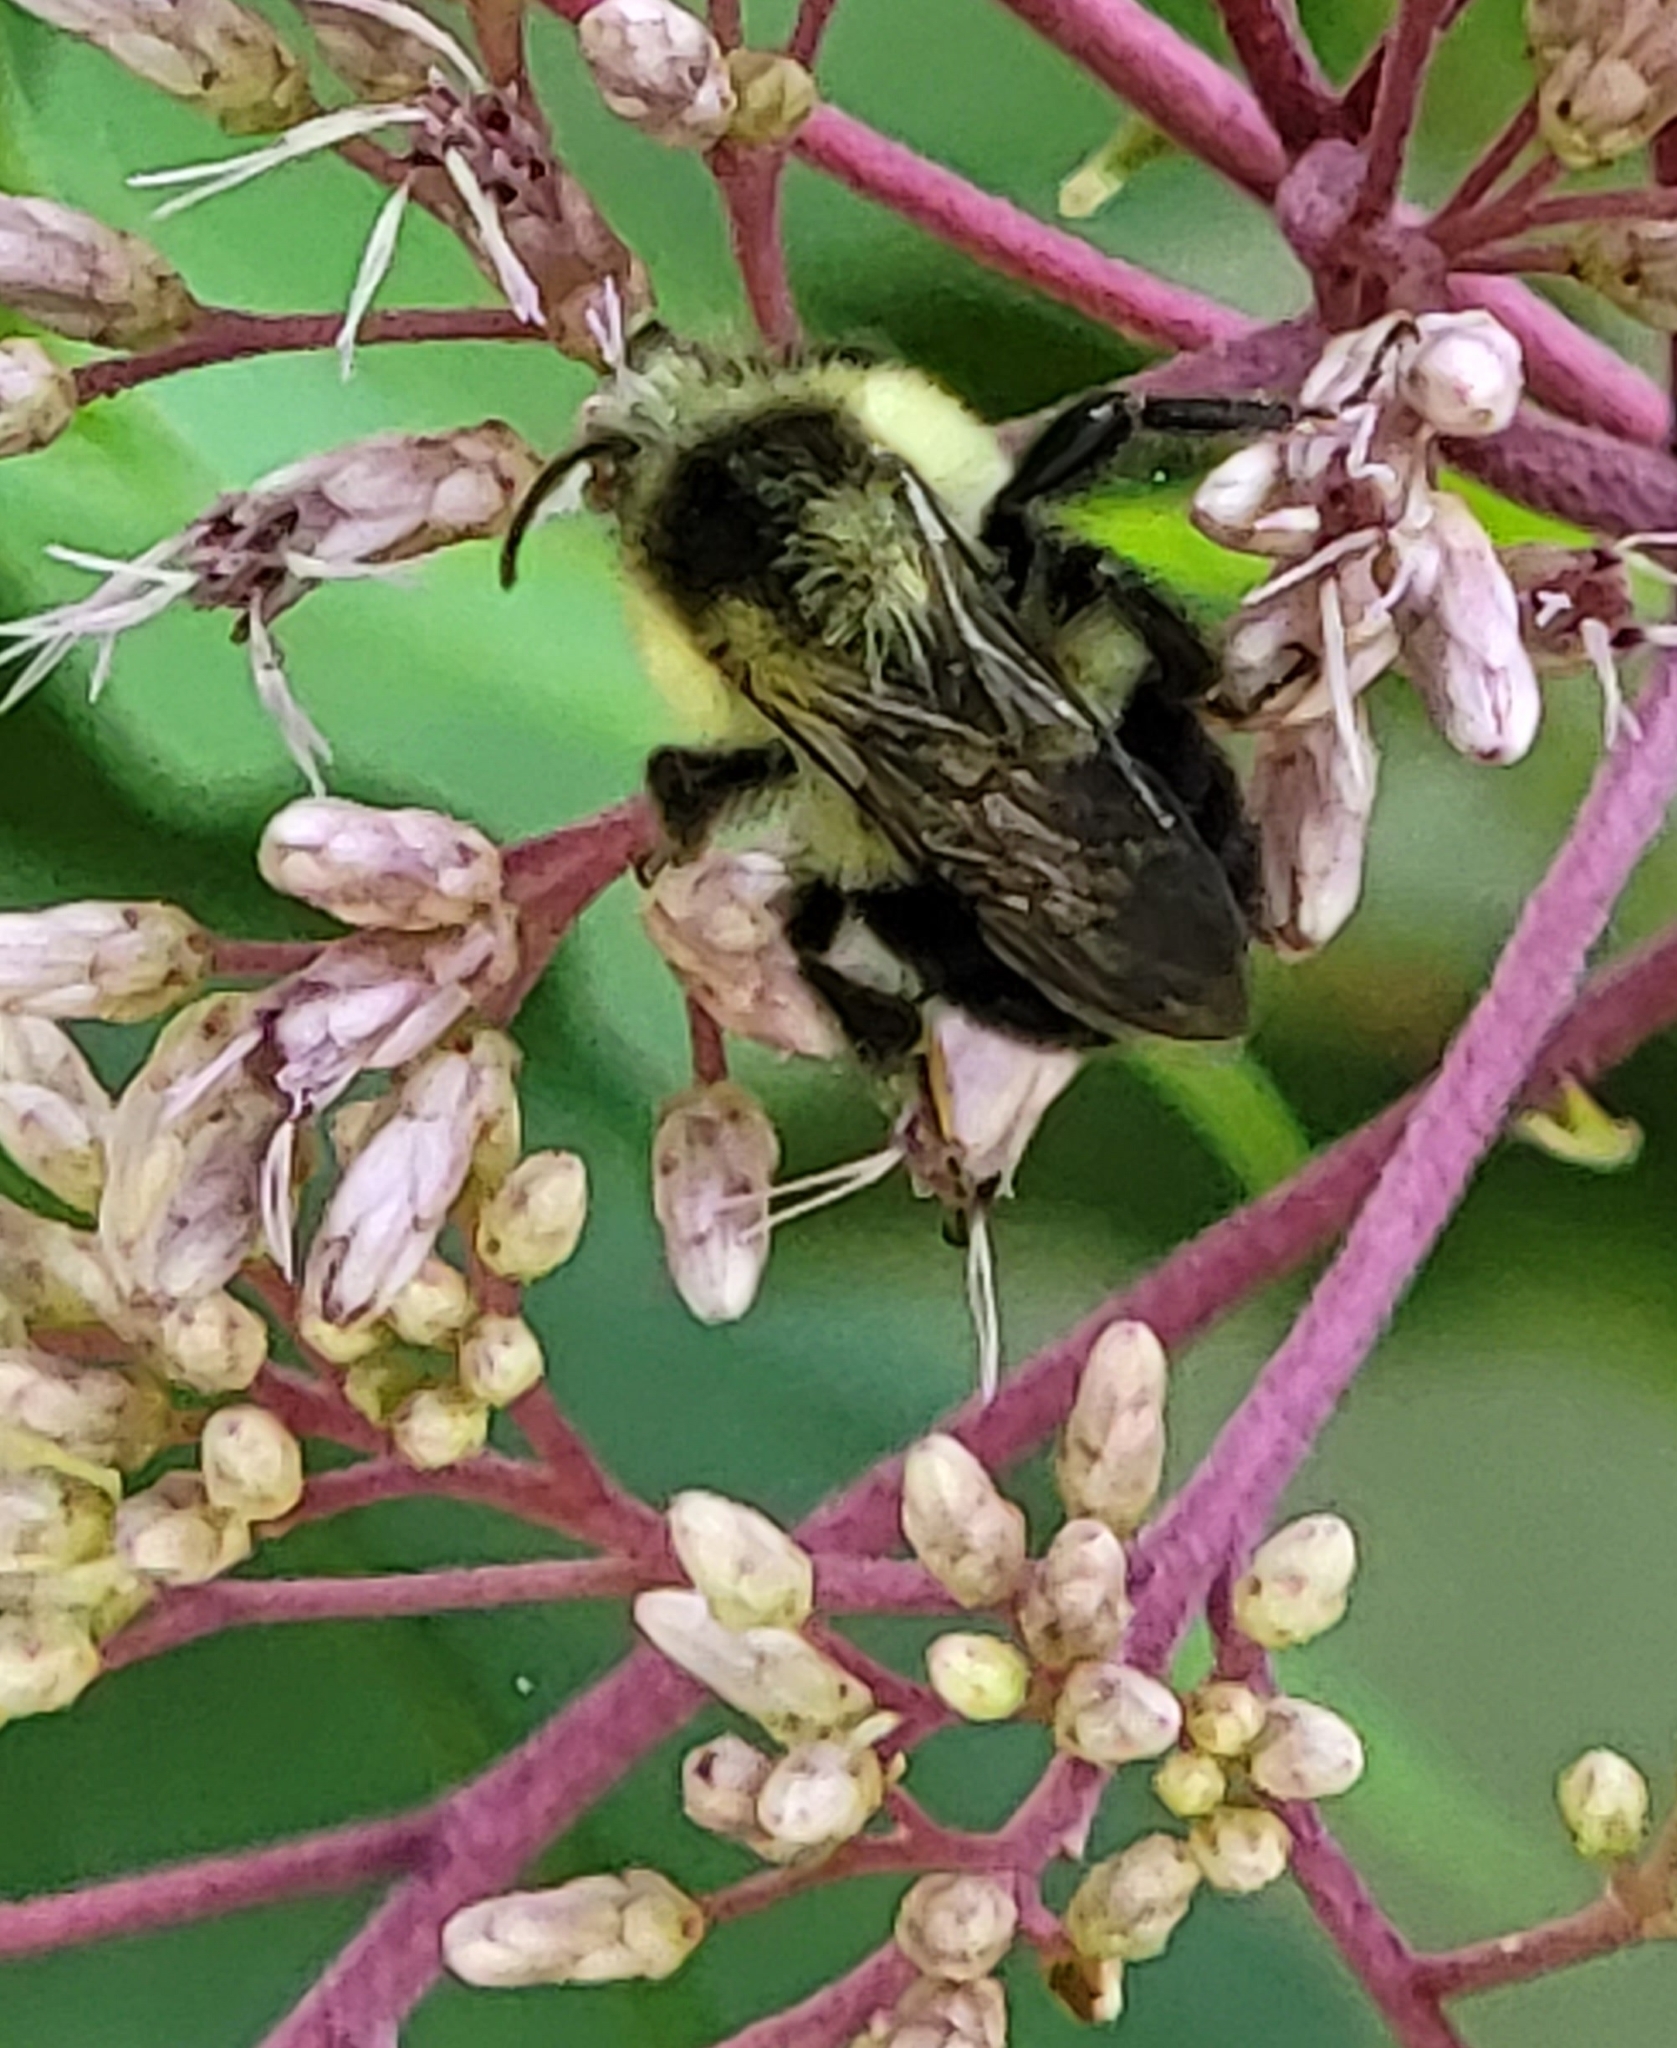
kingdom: Animalia
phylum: Arthropoda
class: Insecta
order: Hymenoptera
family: Apidae
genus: Bombus
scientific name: Bombus impatiens
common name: Common eastern bumble bee
